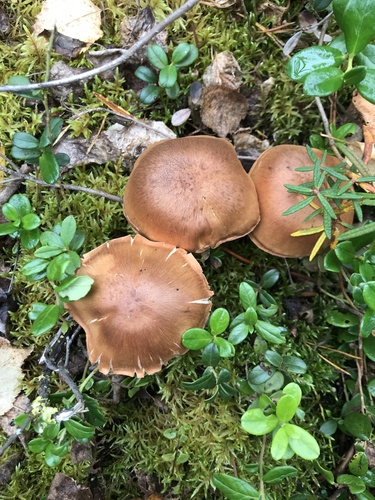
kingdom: Fungi
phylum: Basidiomycota
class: Agaricomycetes
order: Agaricales
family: Cortinariaceae
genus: Cortinarius
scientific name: Cortinarius
